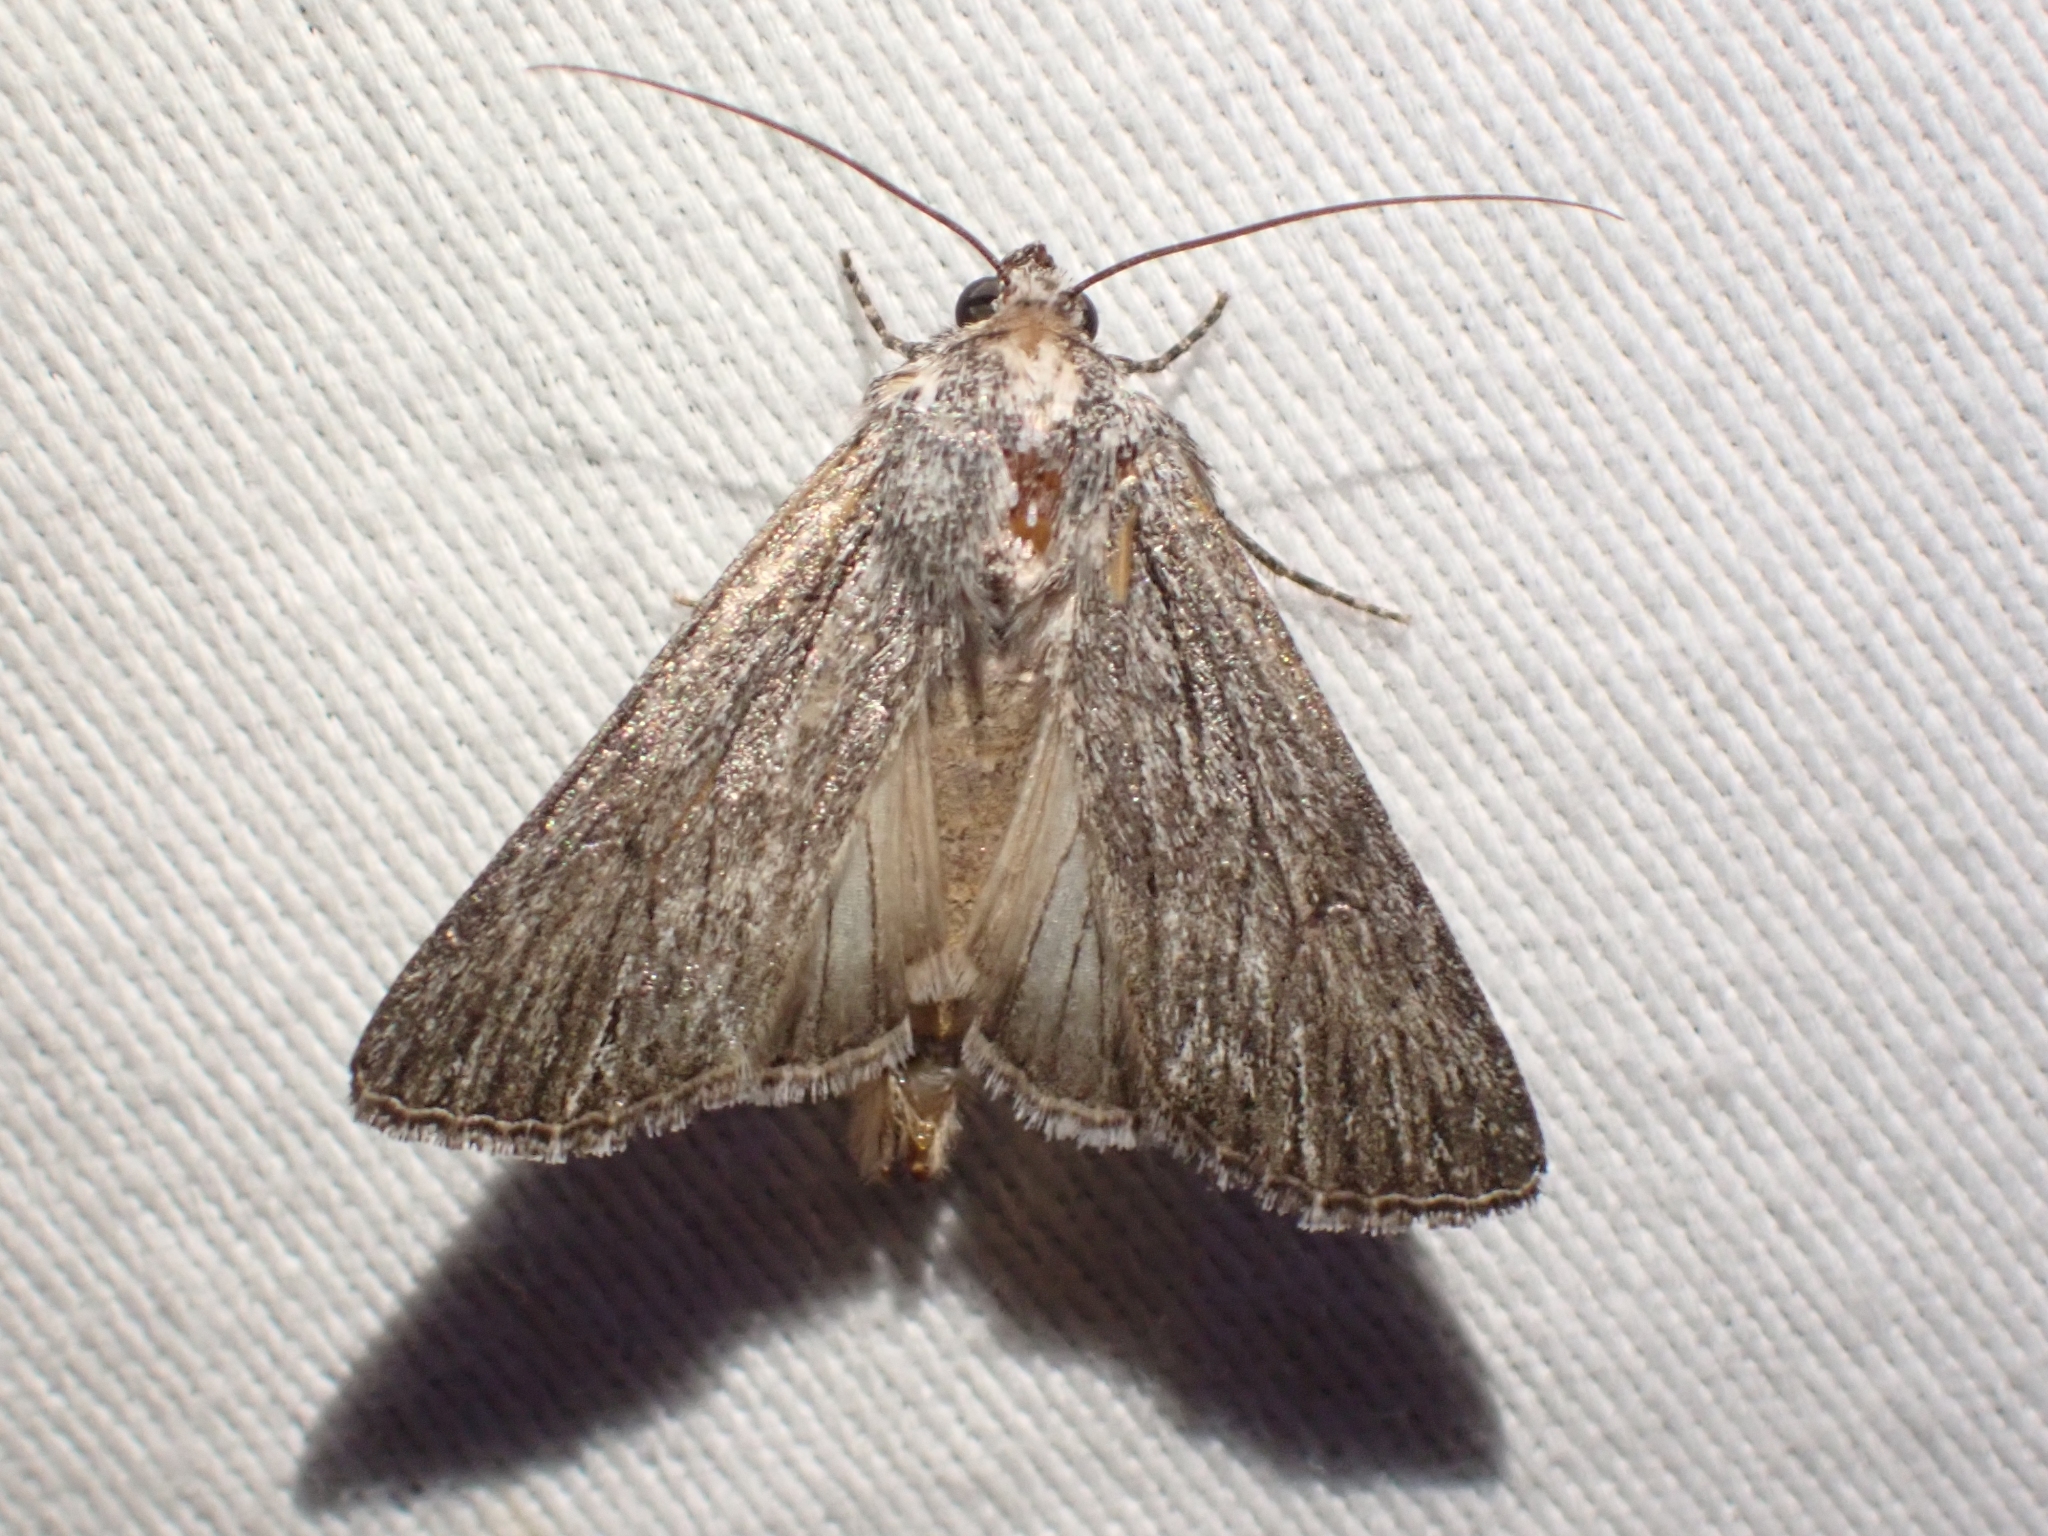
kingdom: Animalia
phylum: Arthropoda
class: Insecta
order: Lepidoptera
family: Noctuidae
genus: Sympistis
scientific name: Sympistis chons
